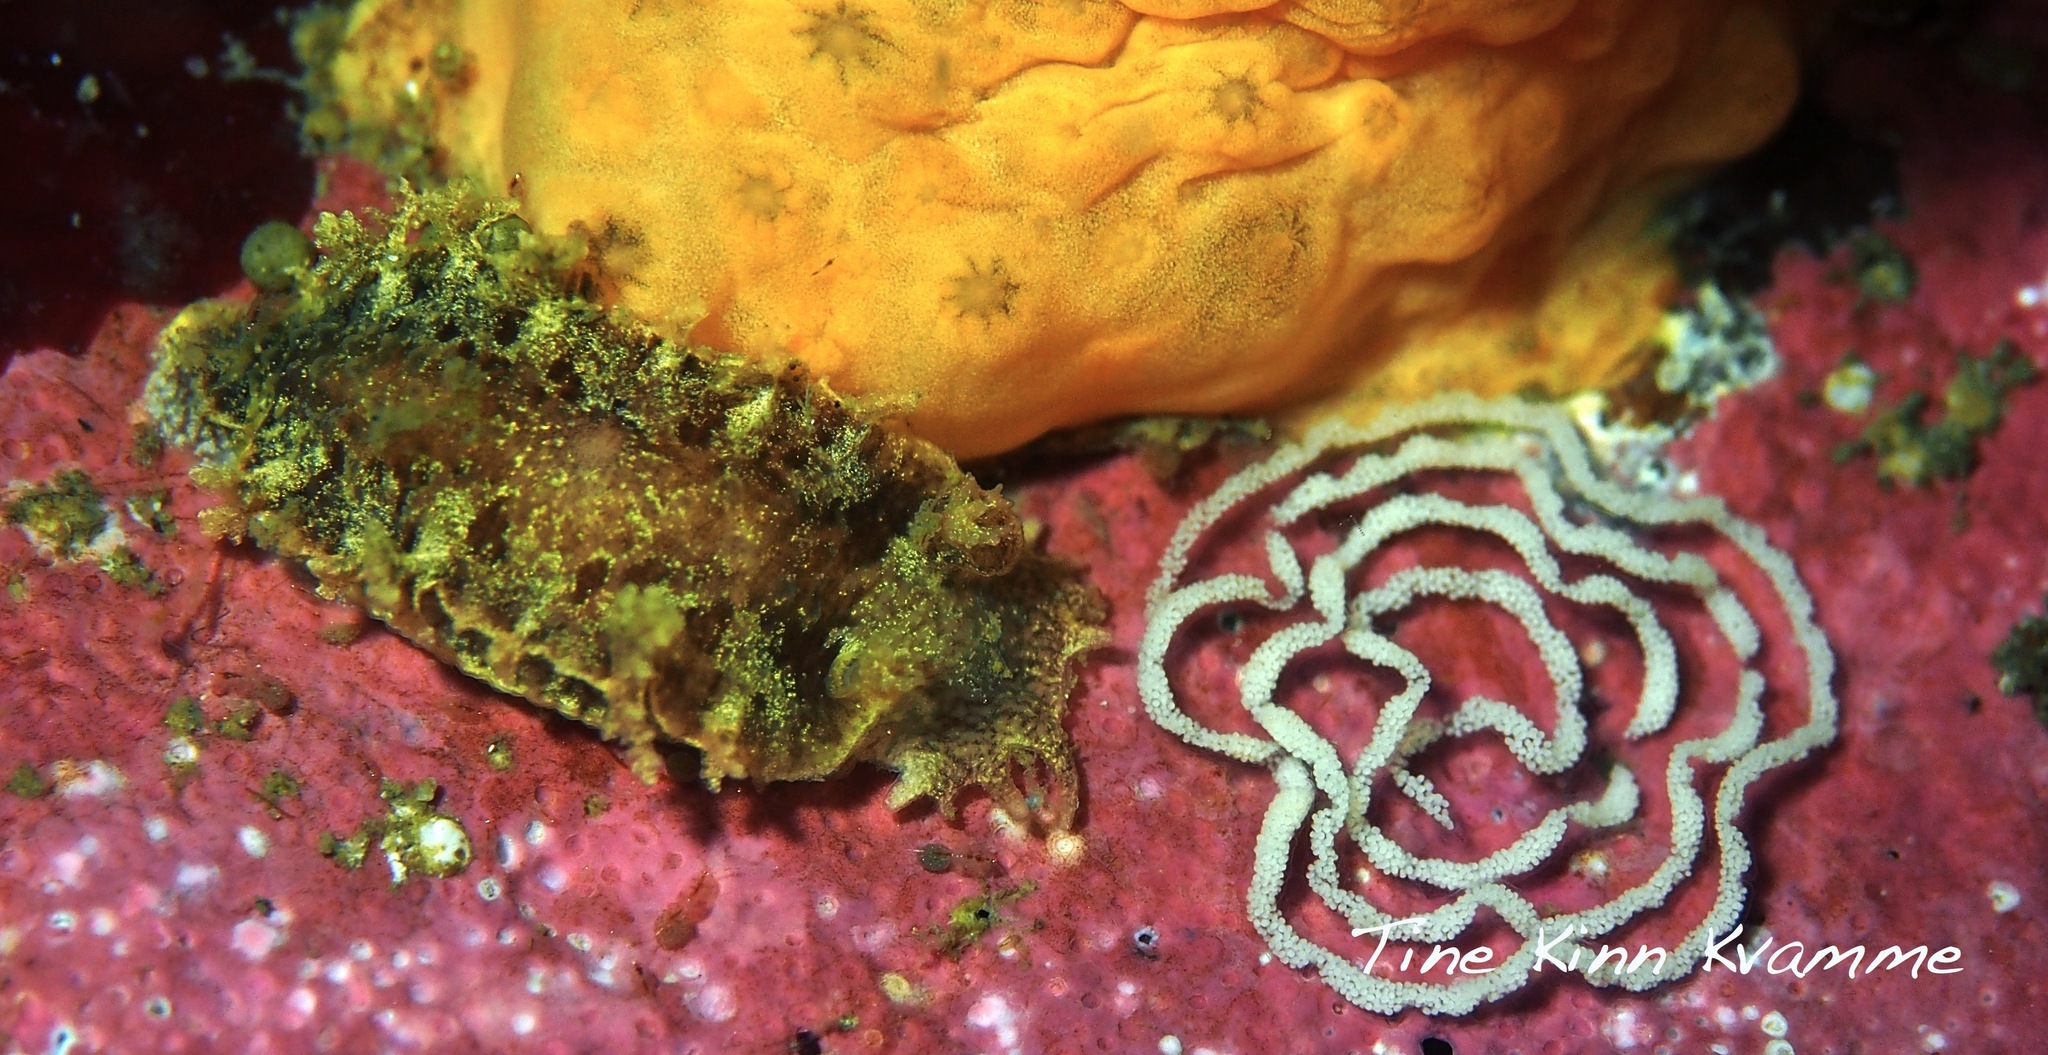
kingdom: Animalia
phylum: Mollusca
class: Gastropoda
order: Nudibranchia
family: Tritoniidae
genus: Duvaucelia
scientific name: Duvaucelia plebeia
